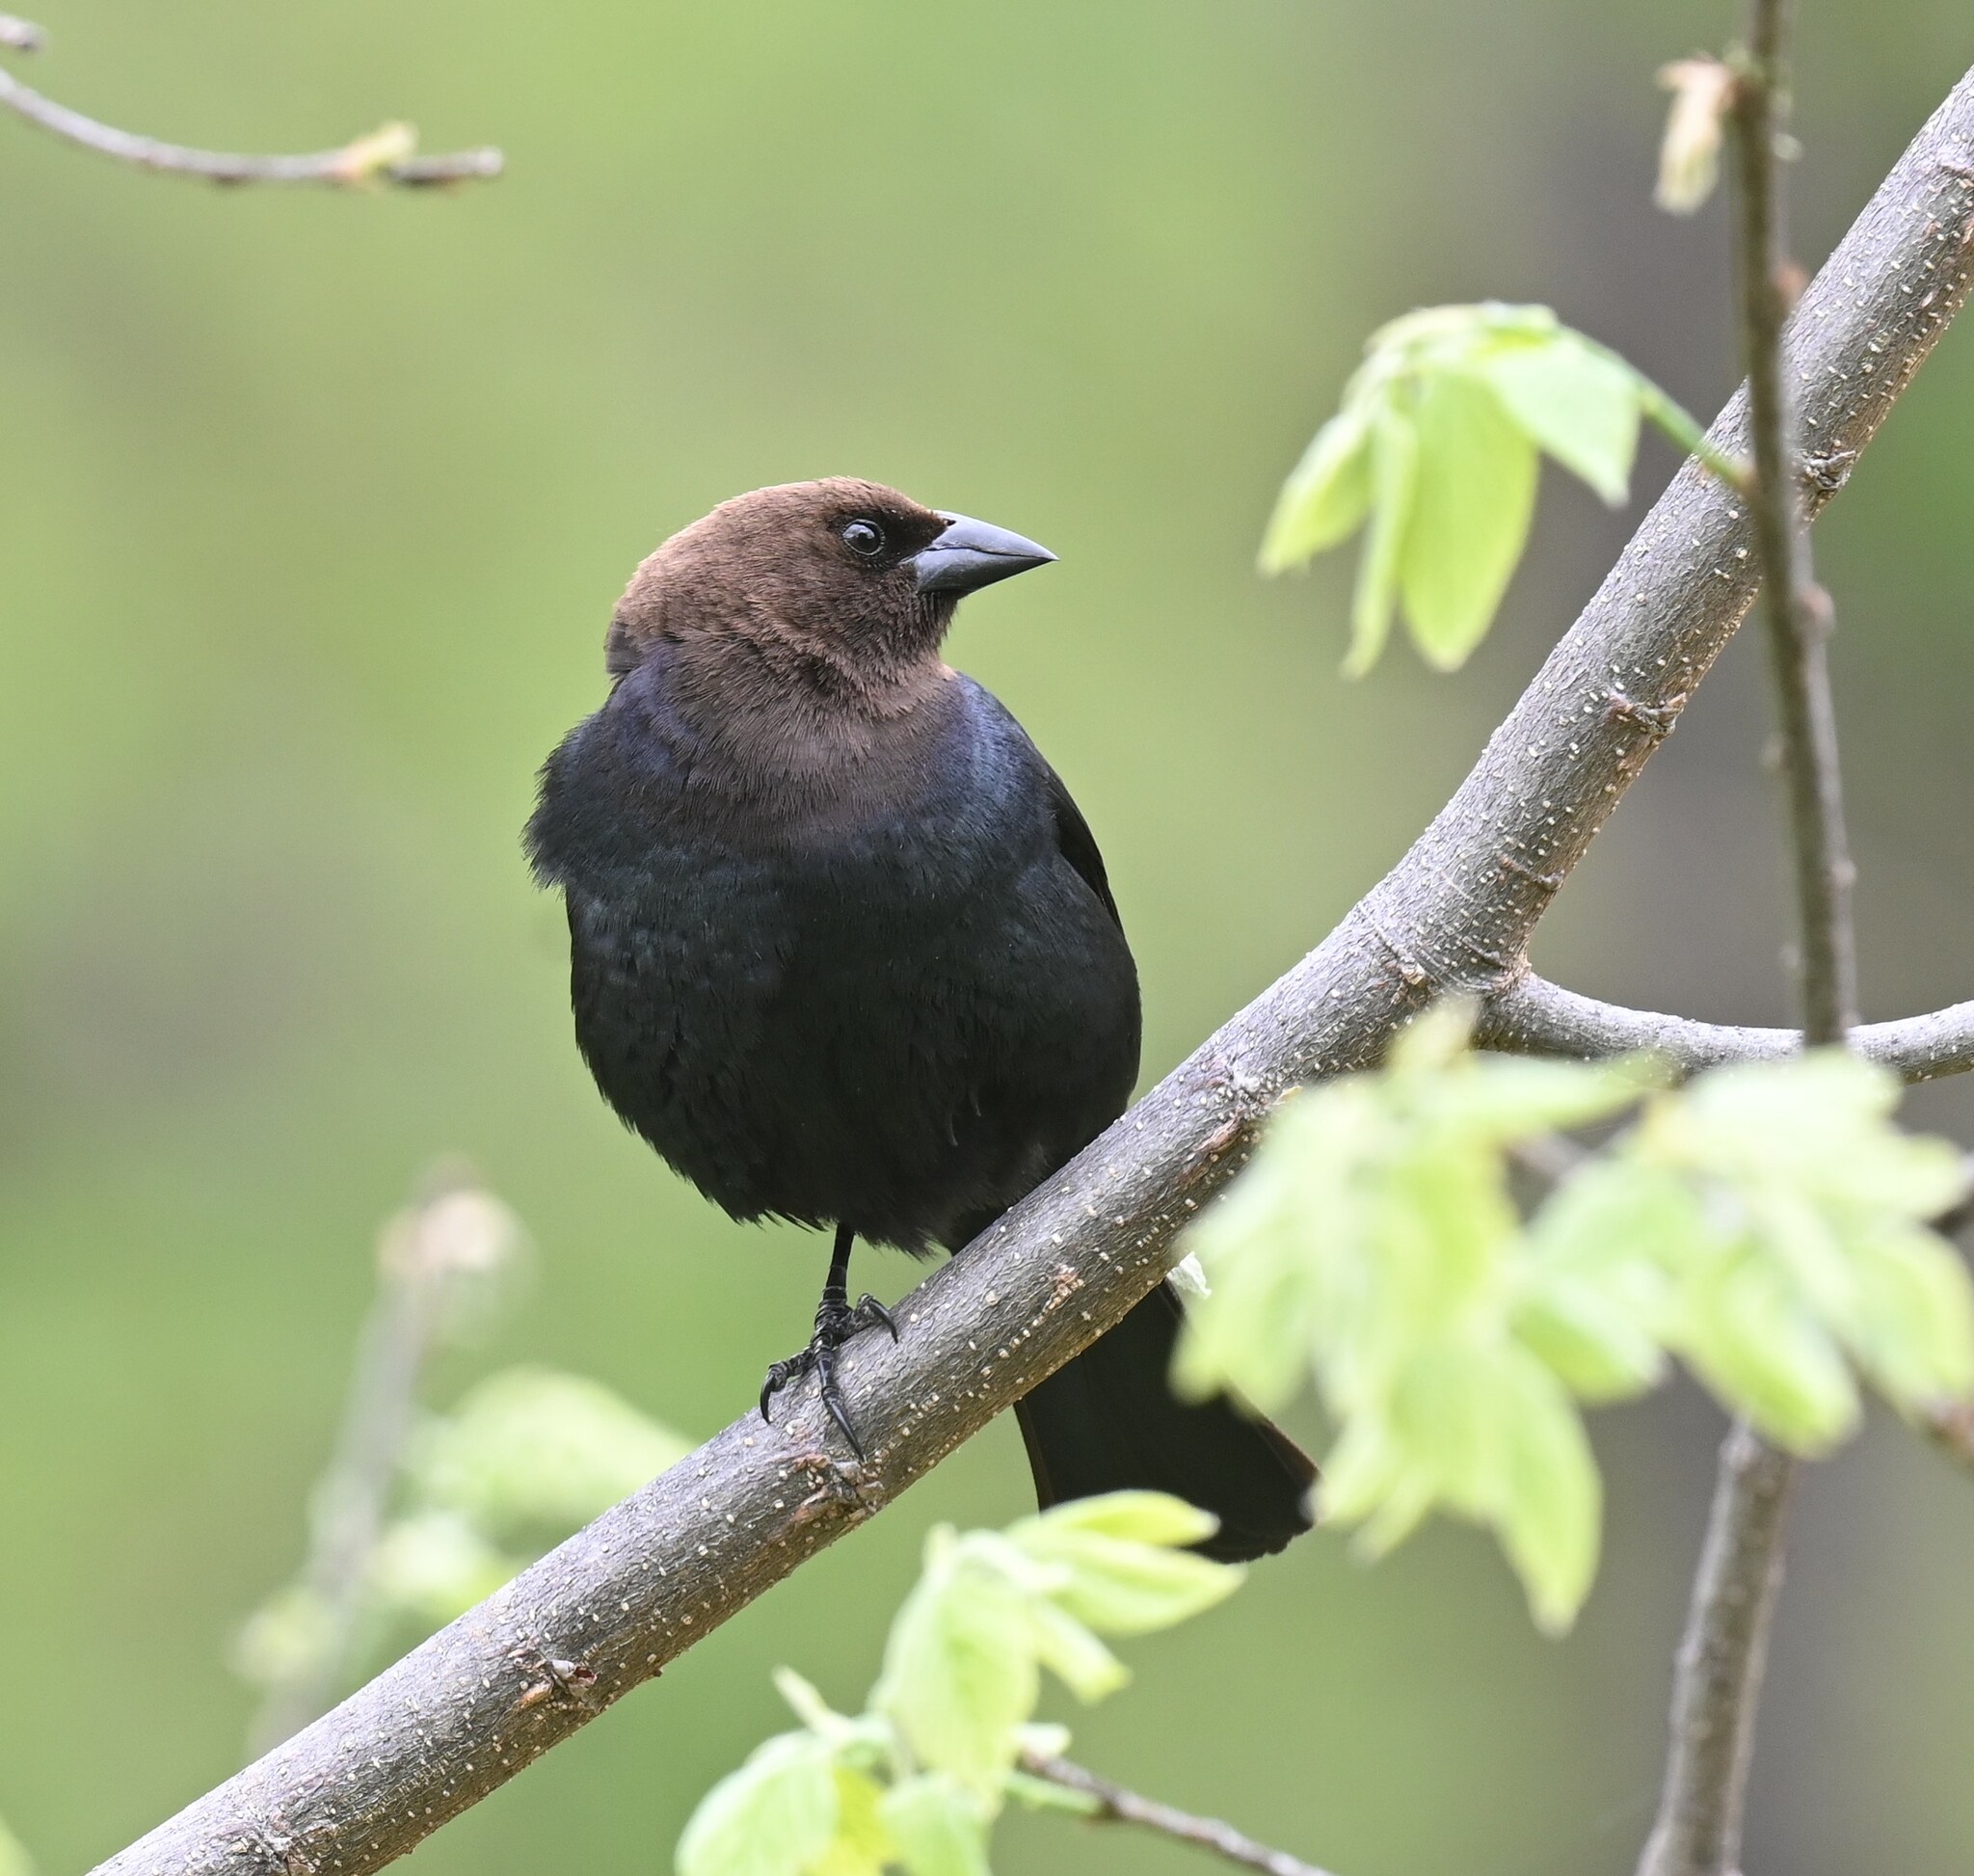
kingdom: Animalia
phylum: Chordata
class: Aves
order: Passeriformes
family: Icteridae
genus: Molothrus
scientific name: Molothrus ater
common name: Brown-headed cowbird
